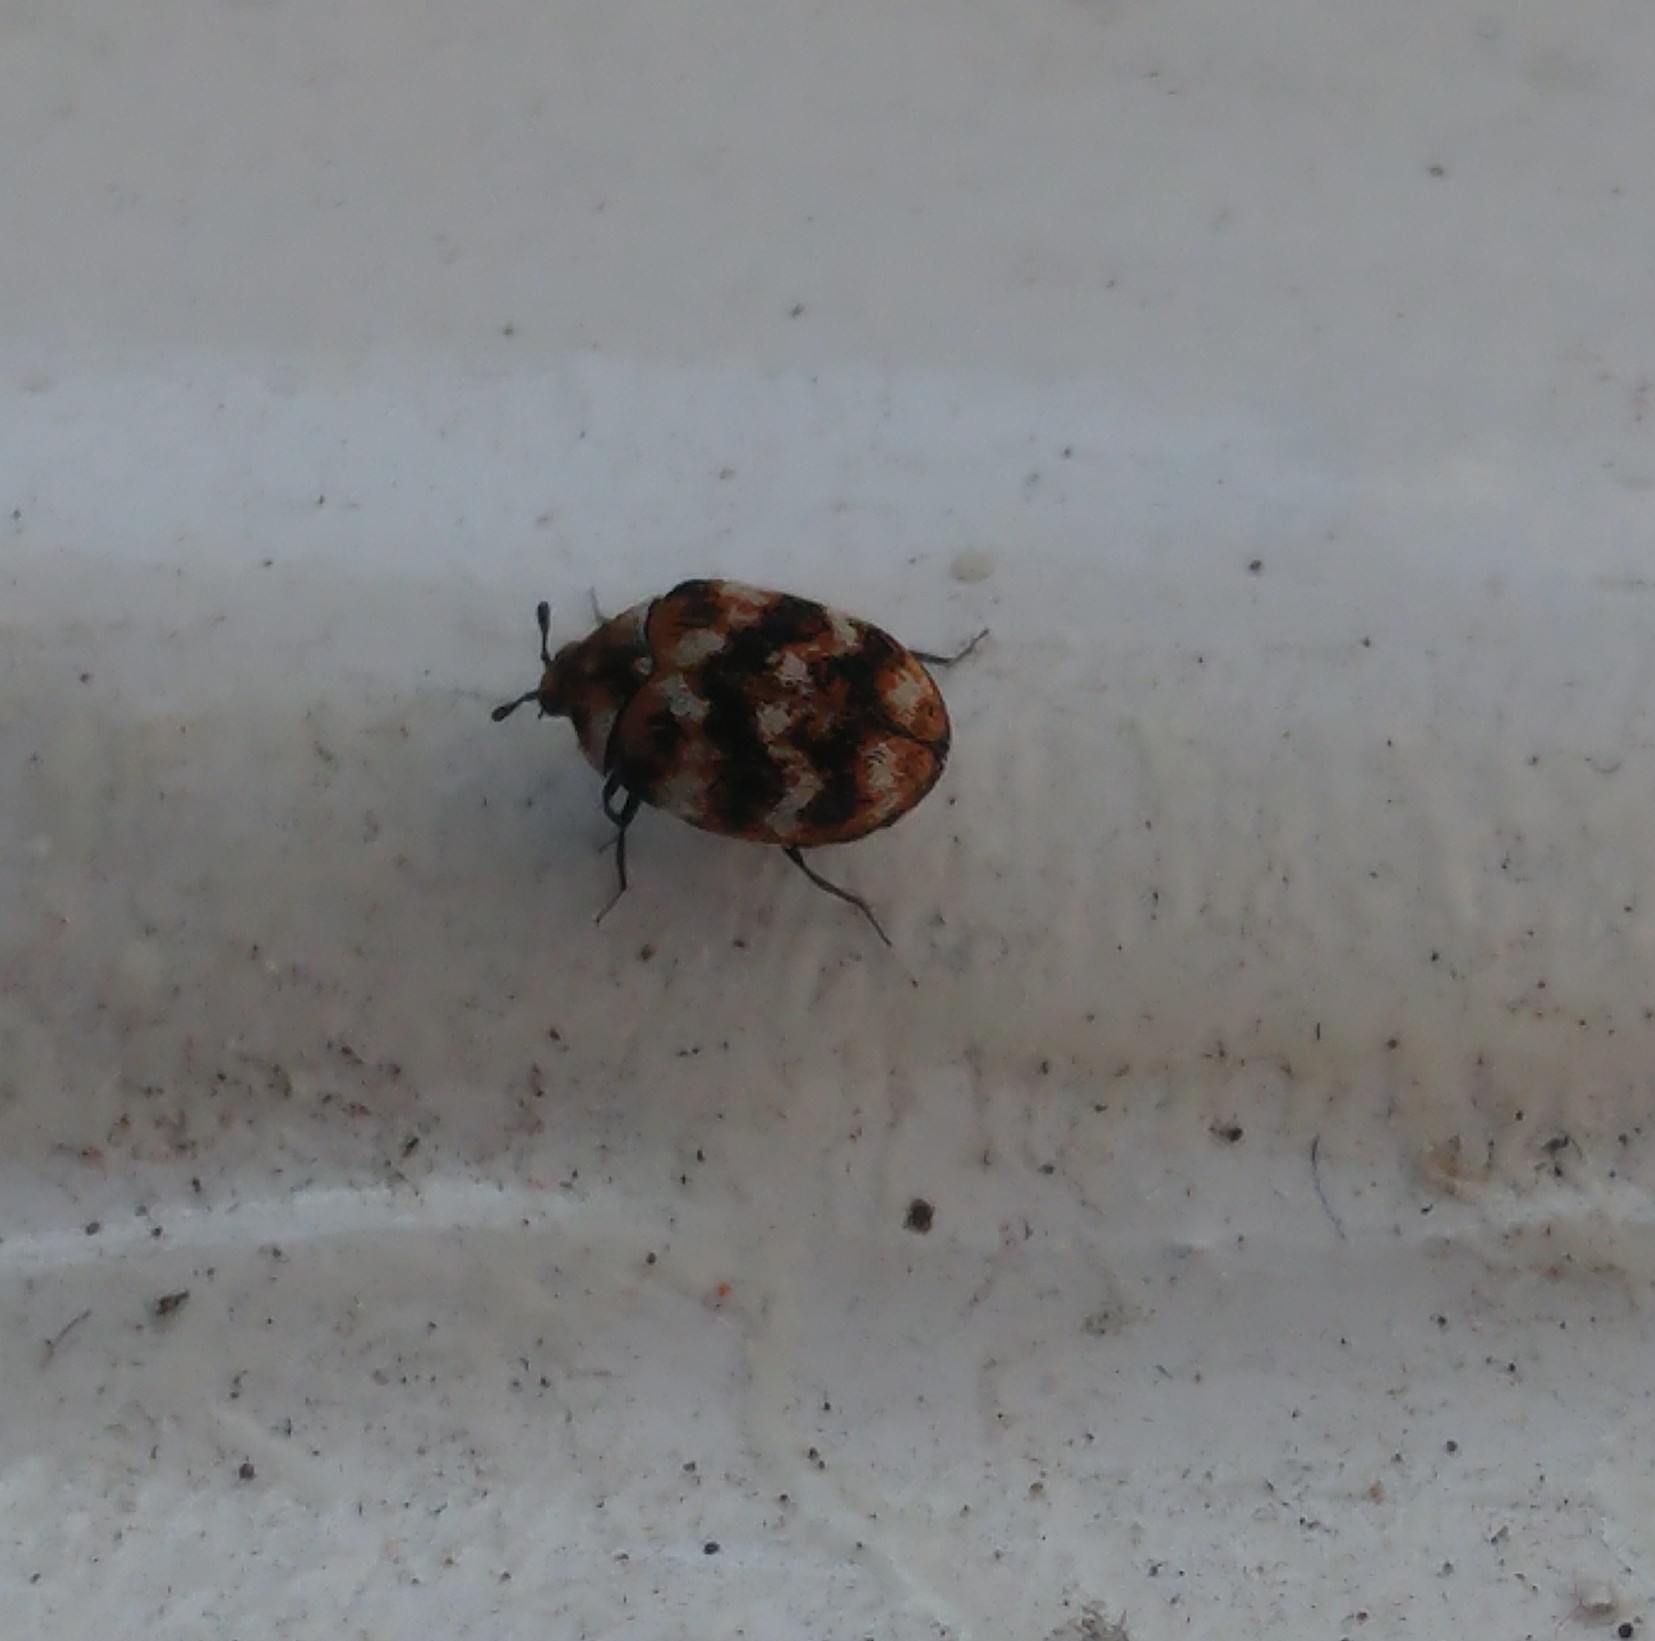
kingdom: Animalia
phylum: Arthropoda
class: Insecta
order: Coleoptera
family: Dermestidae
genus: Anthrenus
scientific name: Anthrenus verbasci
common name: Varied carpet beetle
